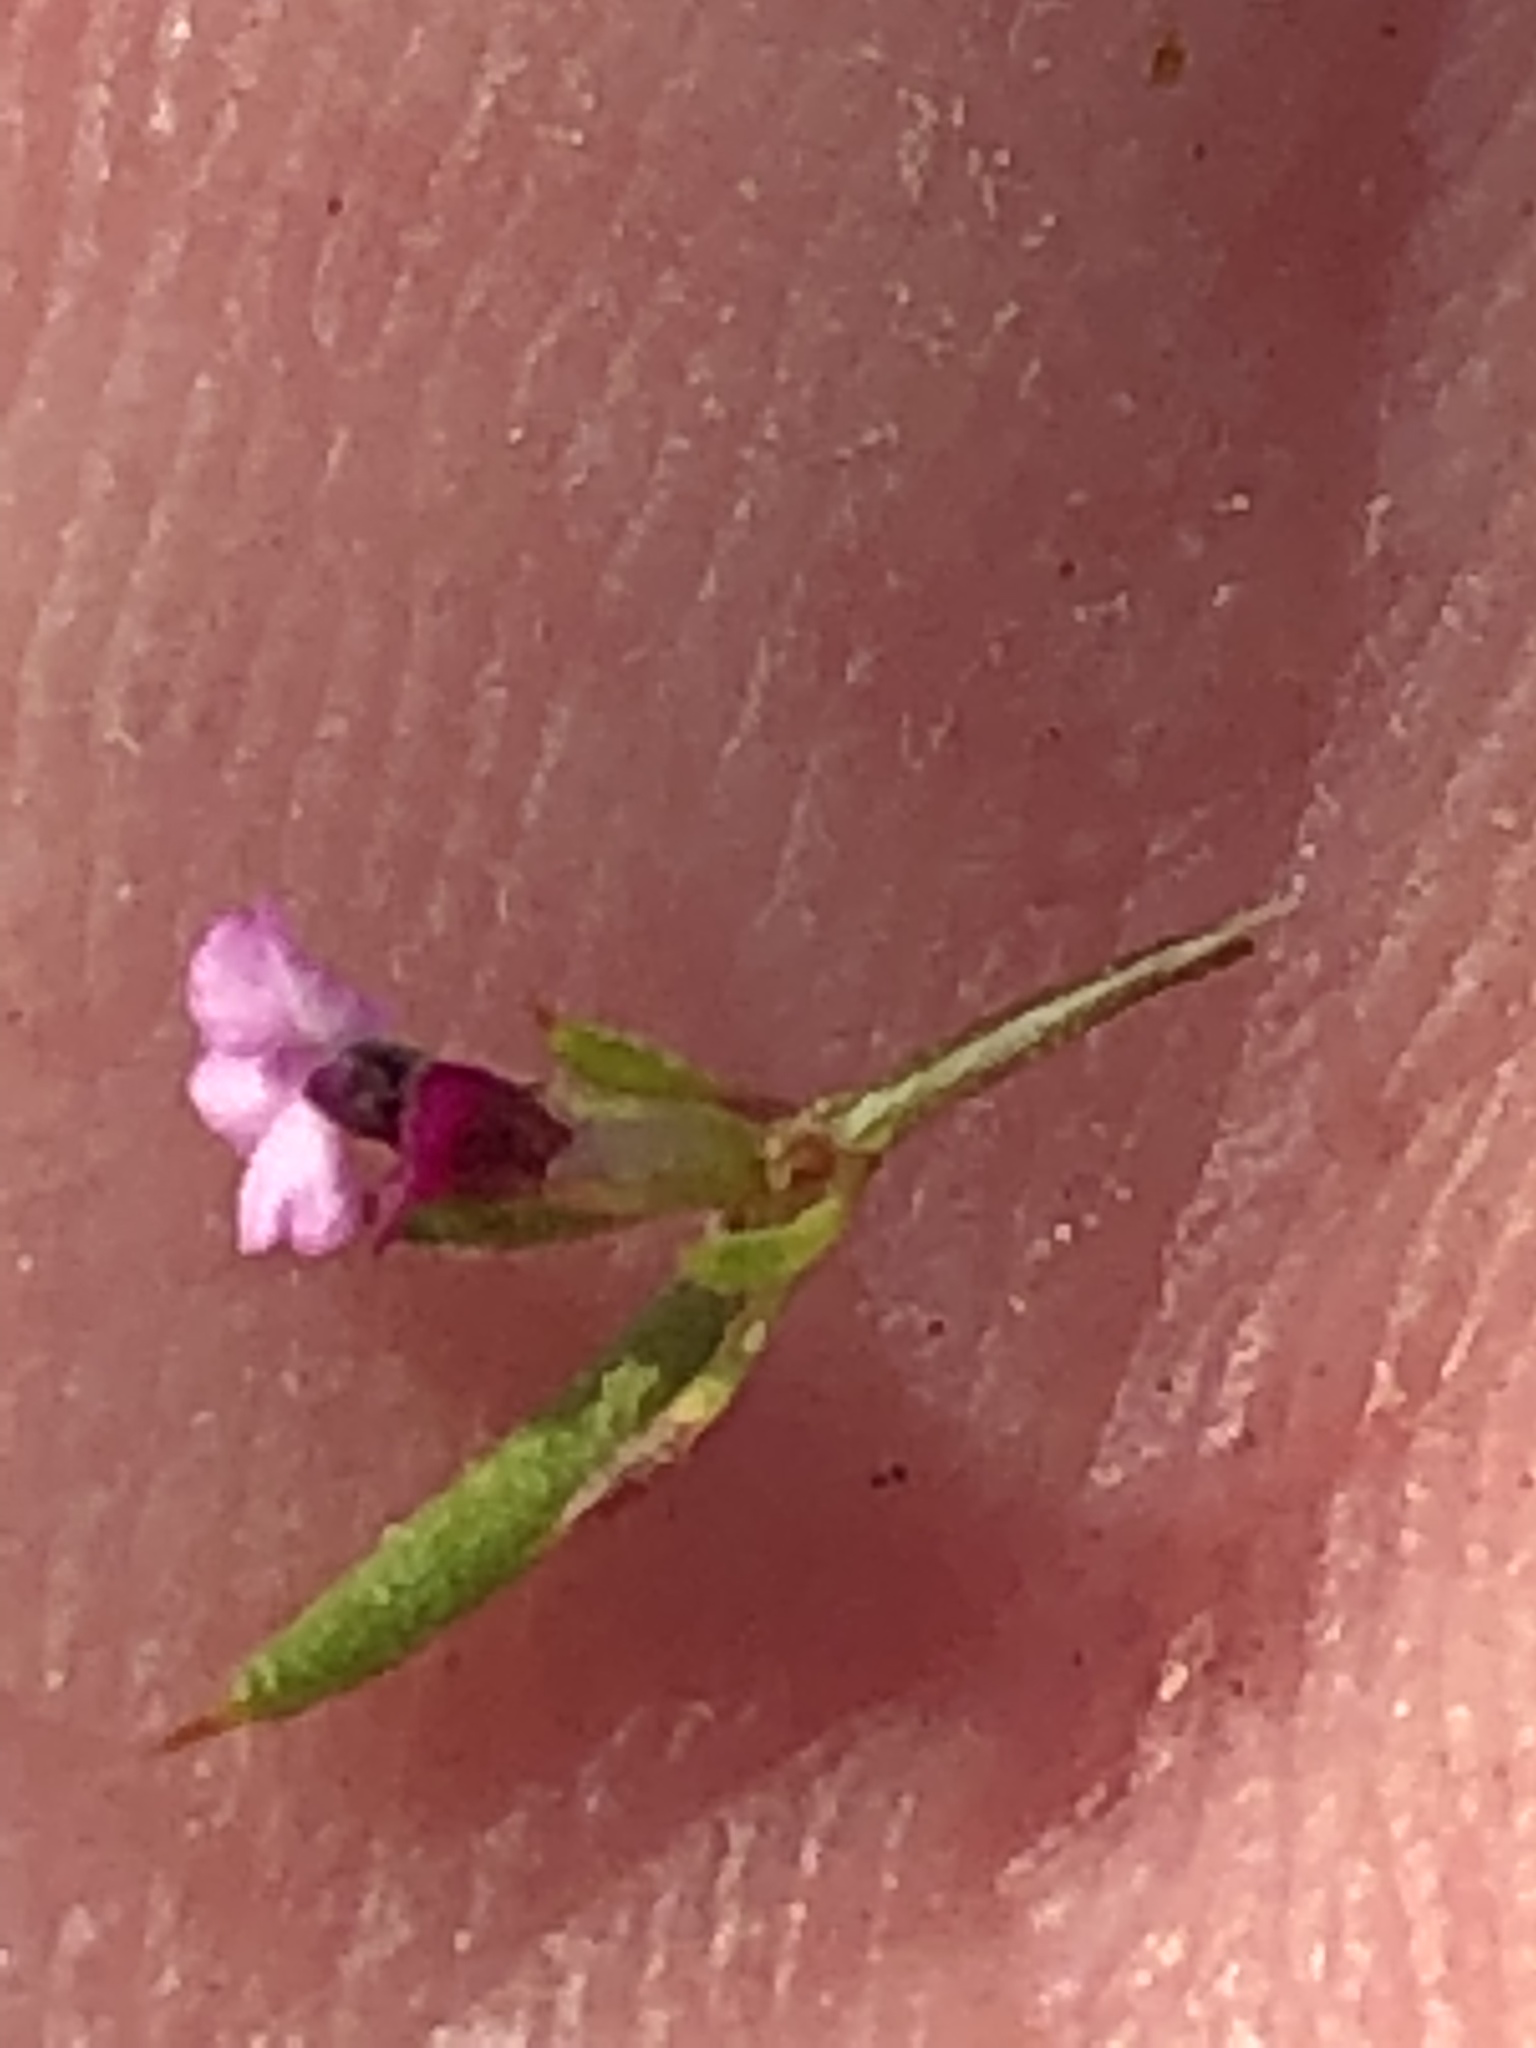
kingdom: Plantae
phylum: Tracheophyta
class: Magnoliopsida
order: Fabales
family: Polygalaceae
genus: Muraltia
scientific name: Muraltia divaricata
